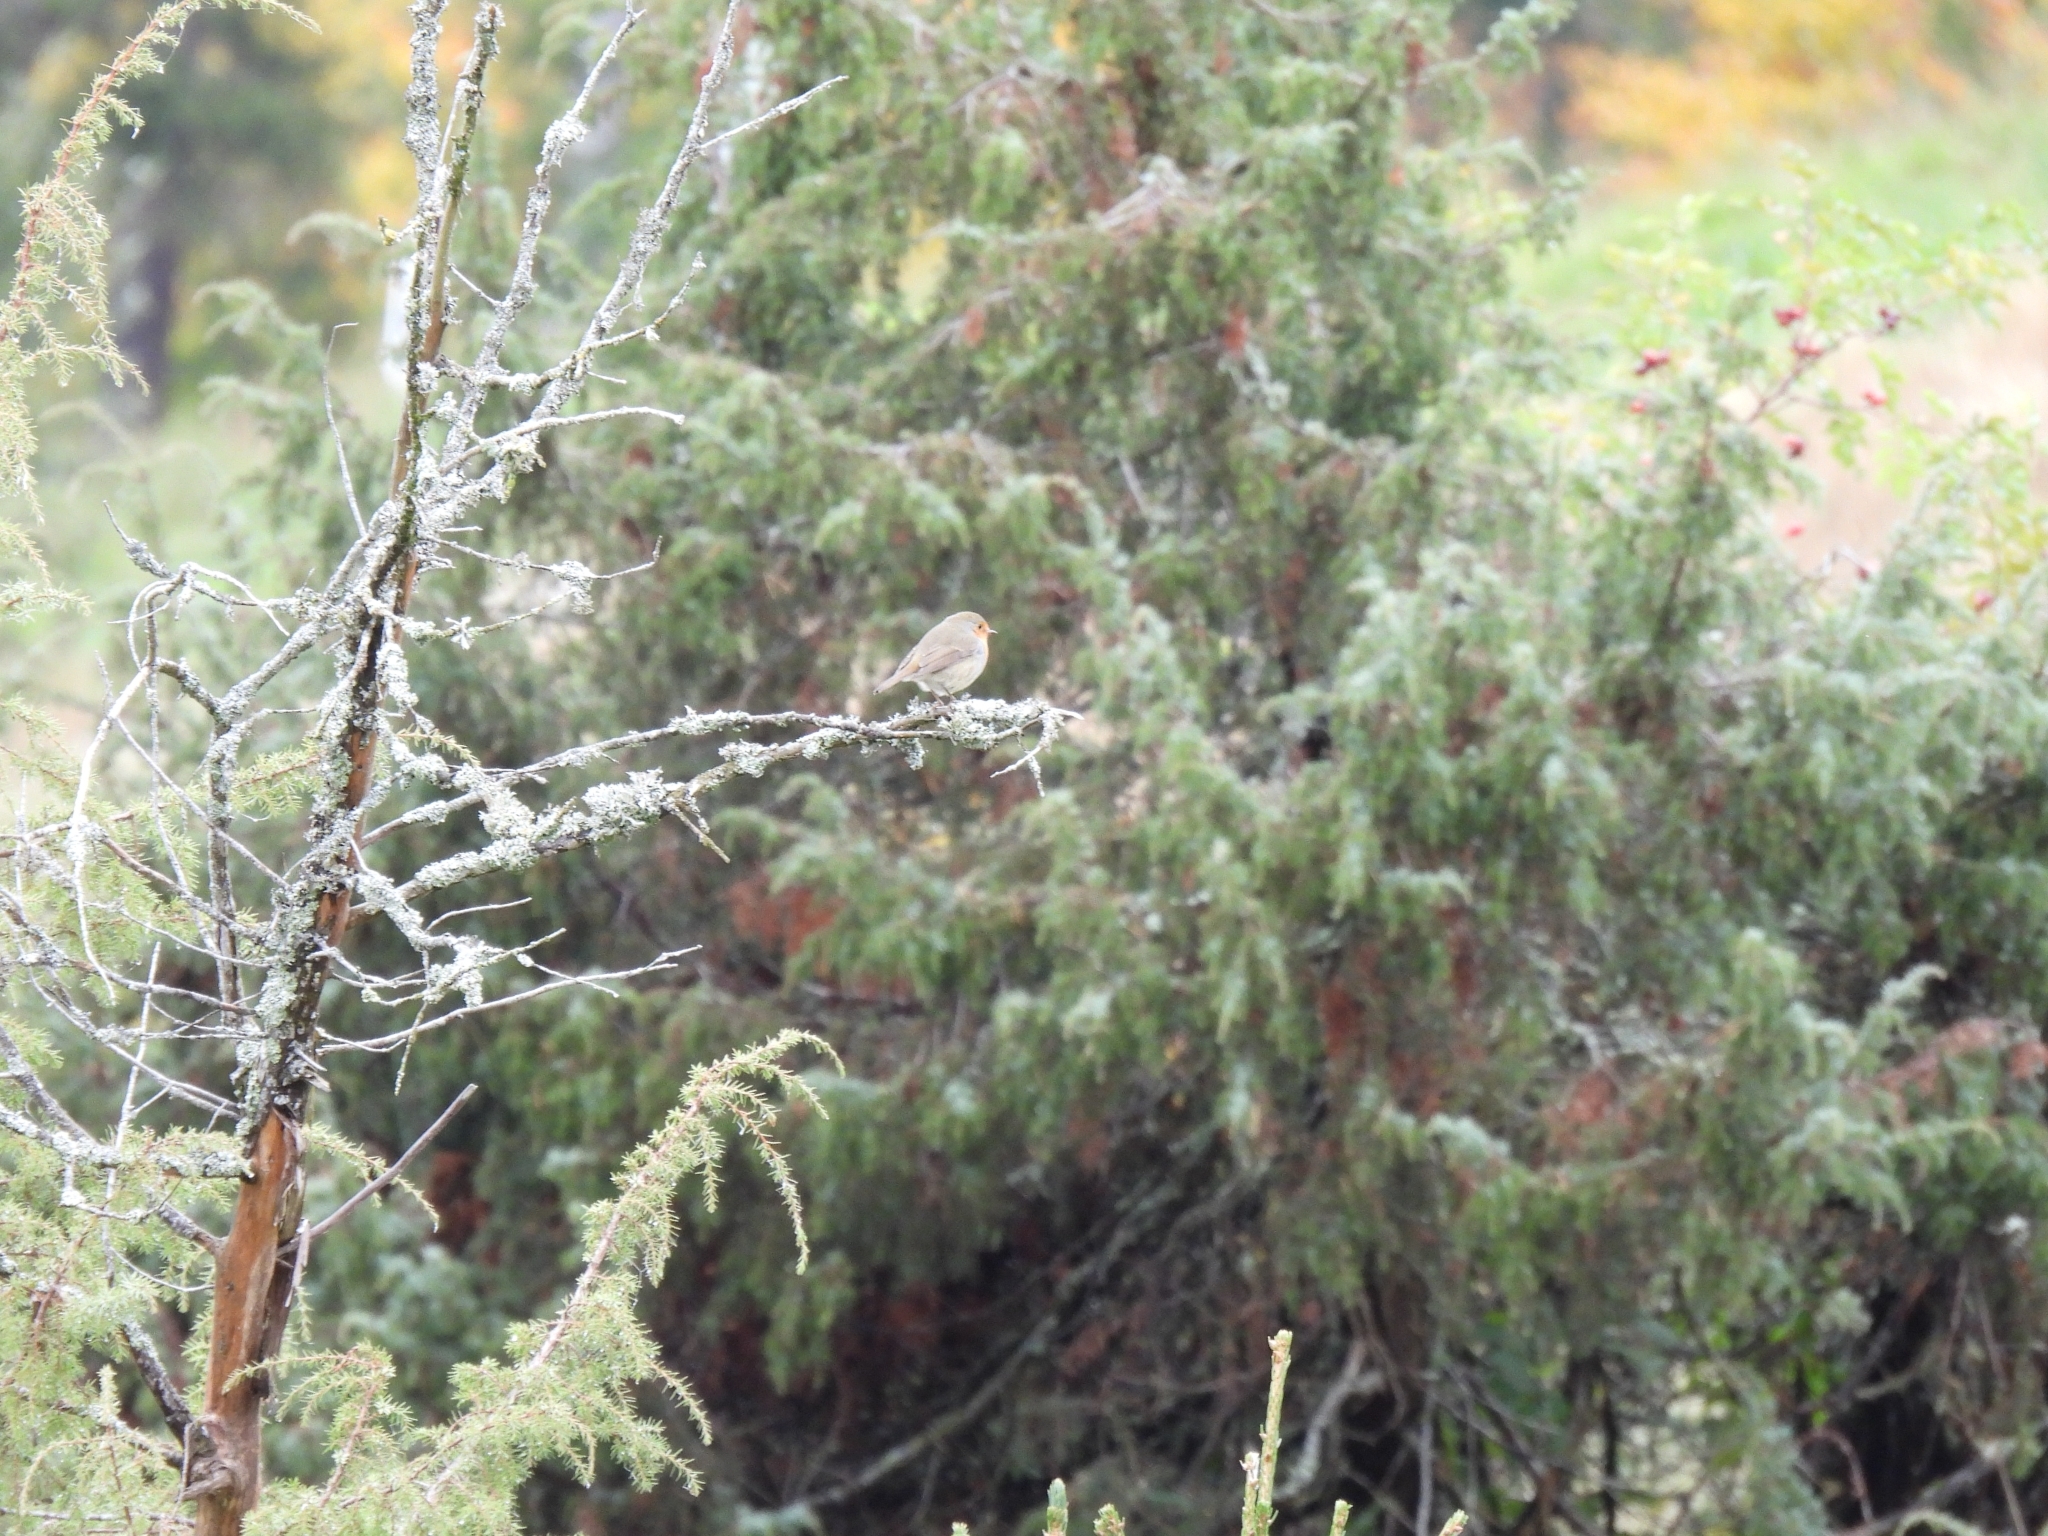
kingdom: Animalia
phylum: Chordata
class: Aves
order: Passeriformes
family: Muscicapidae
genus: Erithacus
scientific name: Erithacus rubecula
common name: European robin
